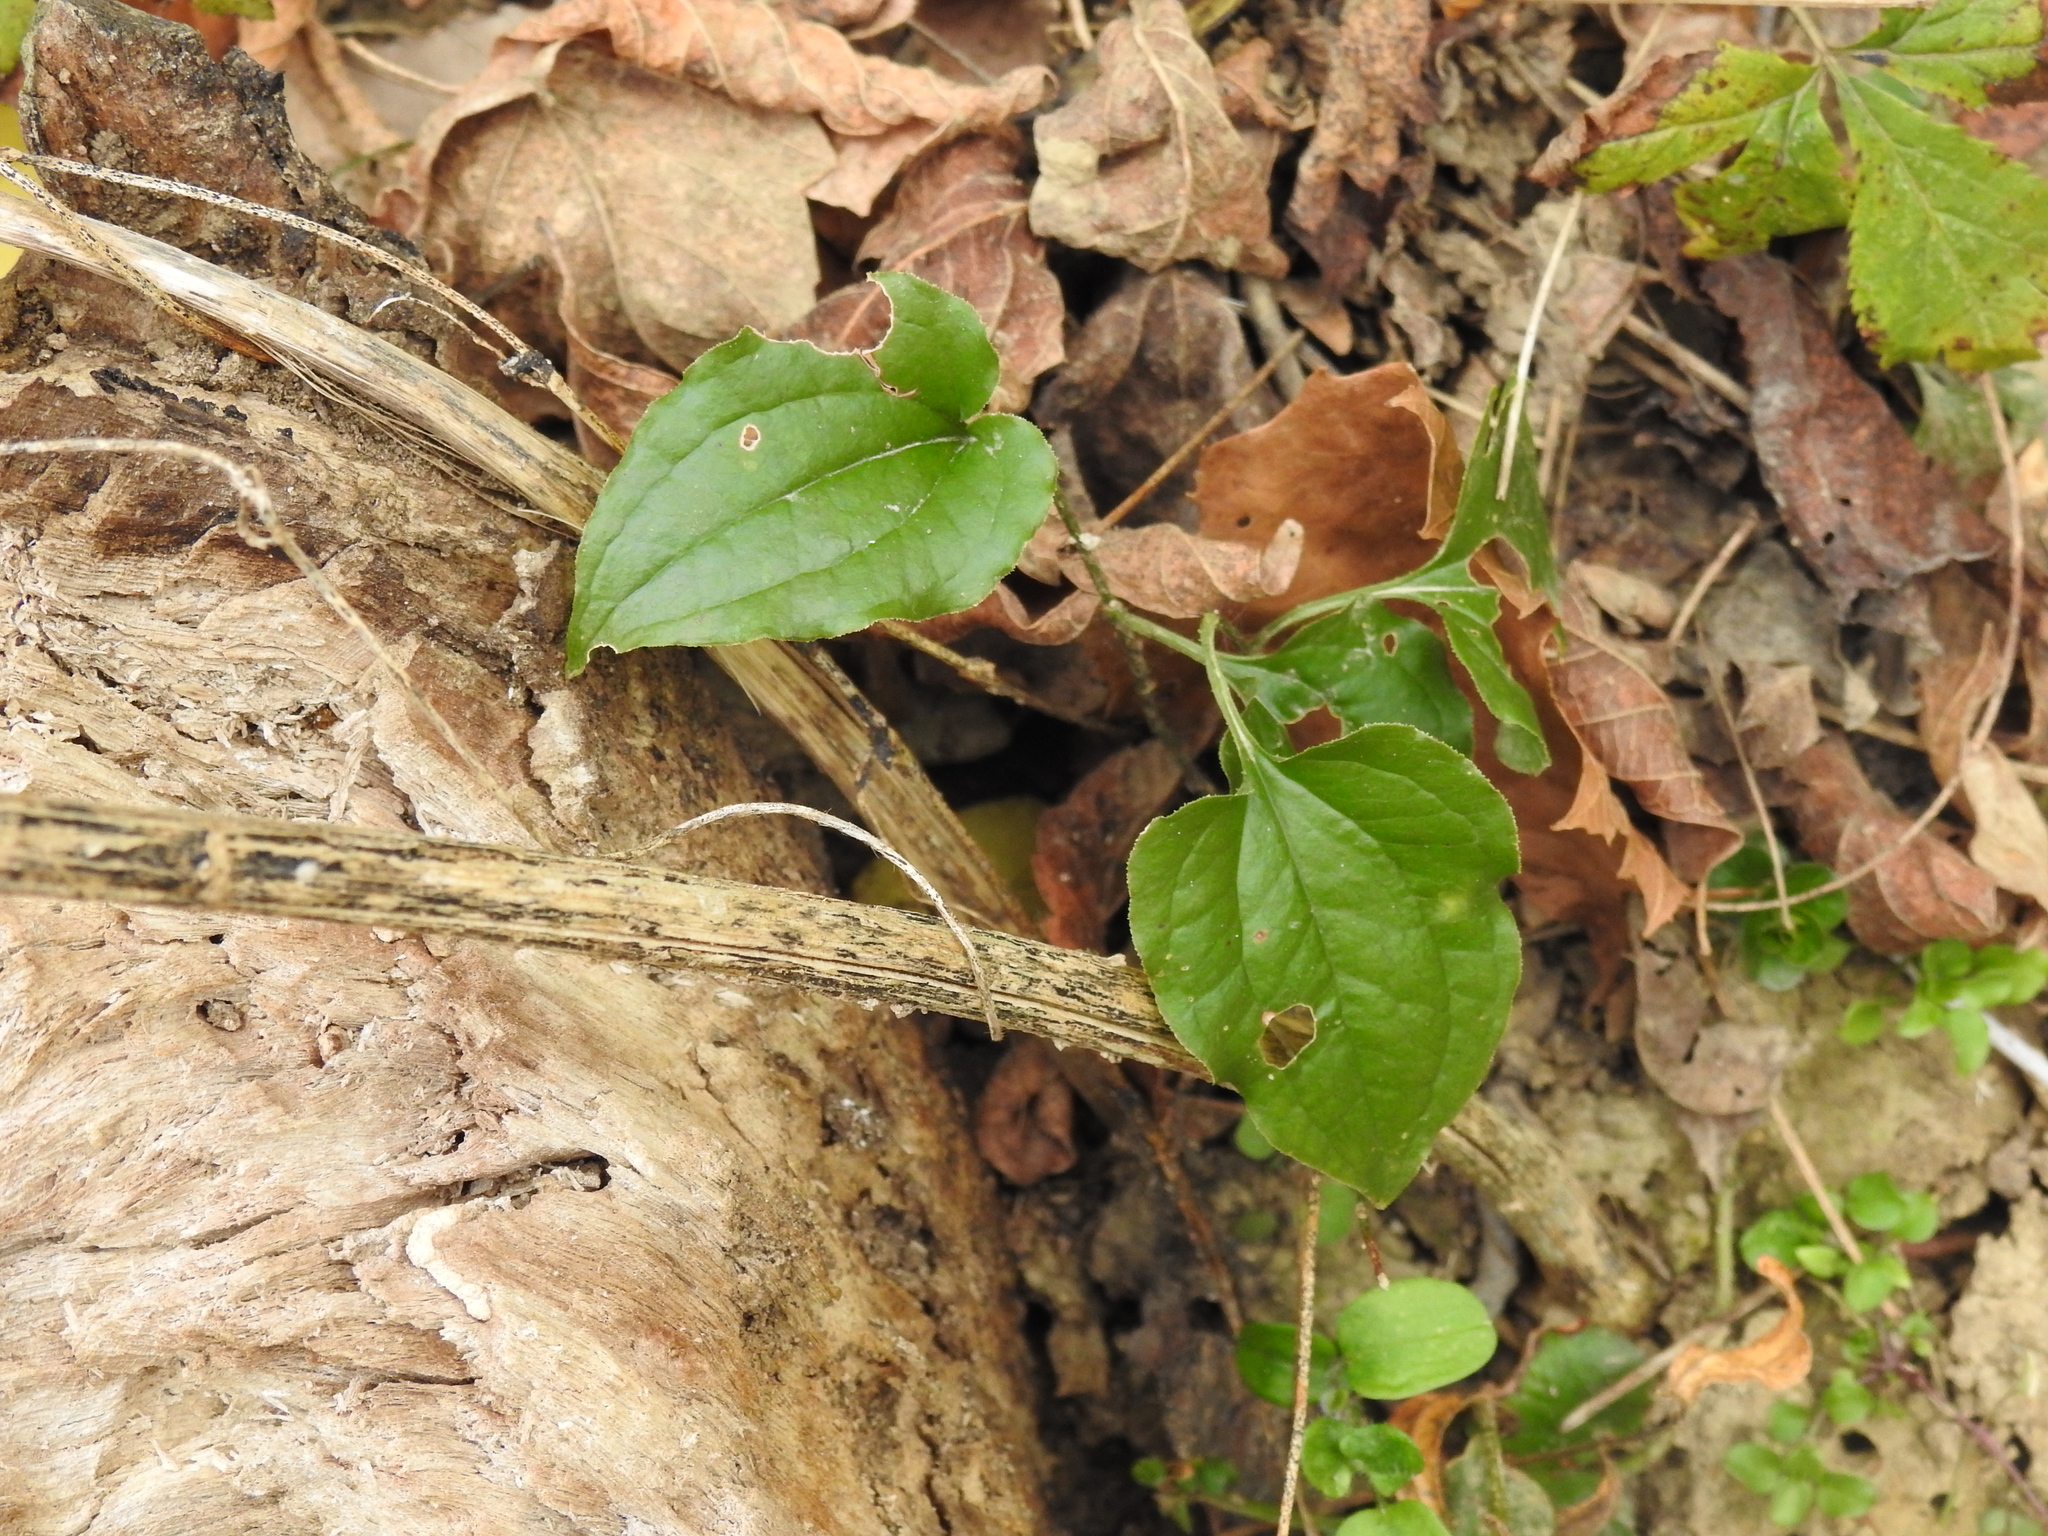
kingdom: Plantae
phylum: Tracheophyta
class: Liliopsida
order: Liliales
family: Smilacaceae
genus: Smilax
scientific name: Smilax tamnoides
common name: Hellfetter
